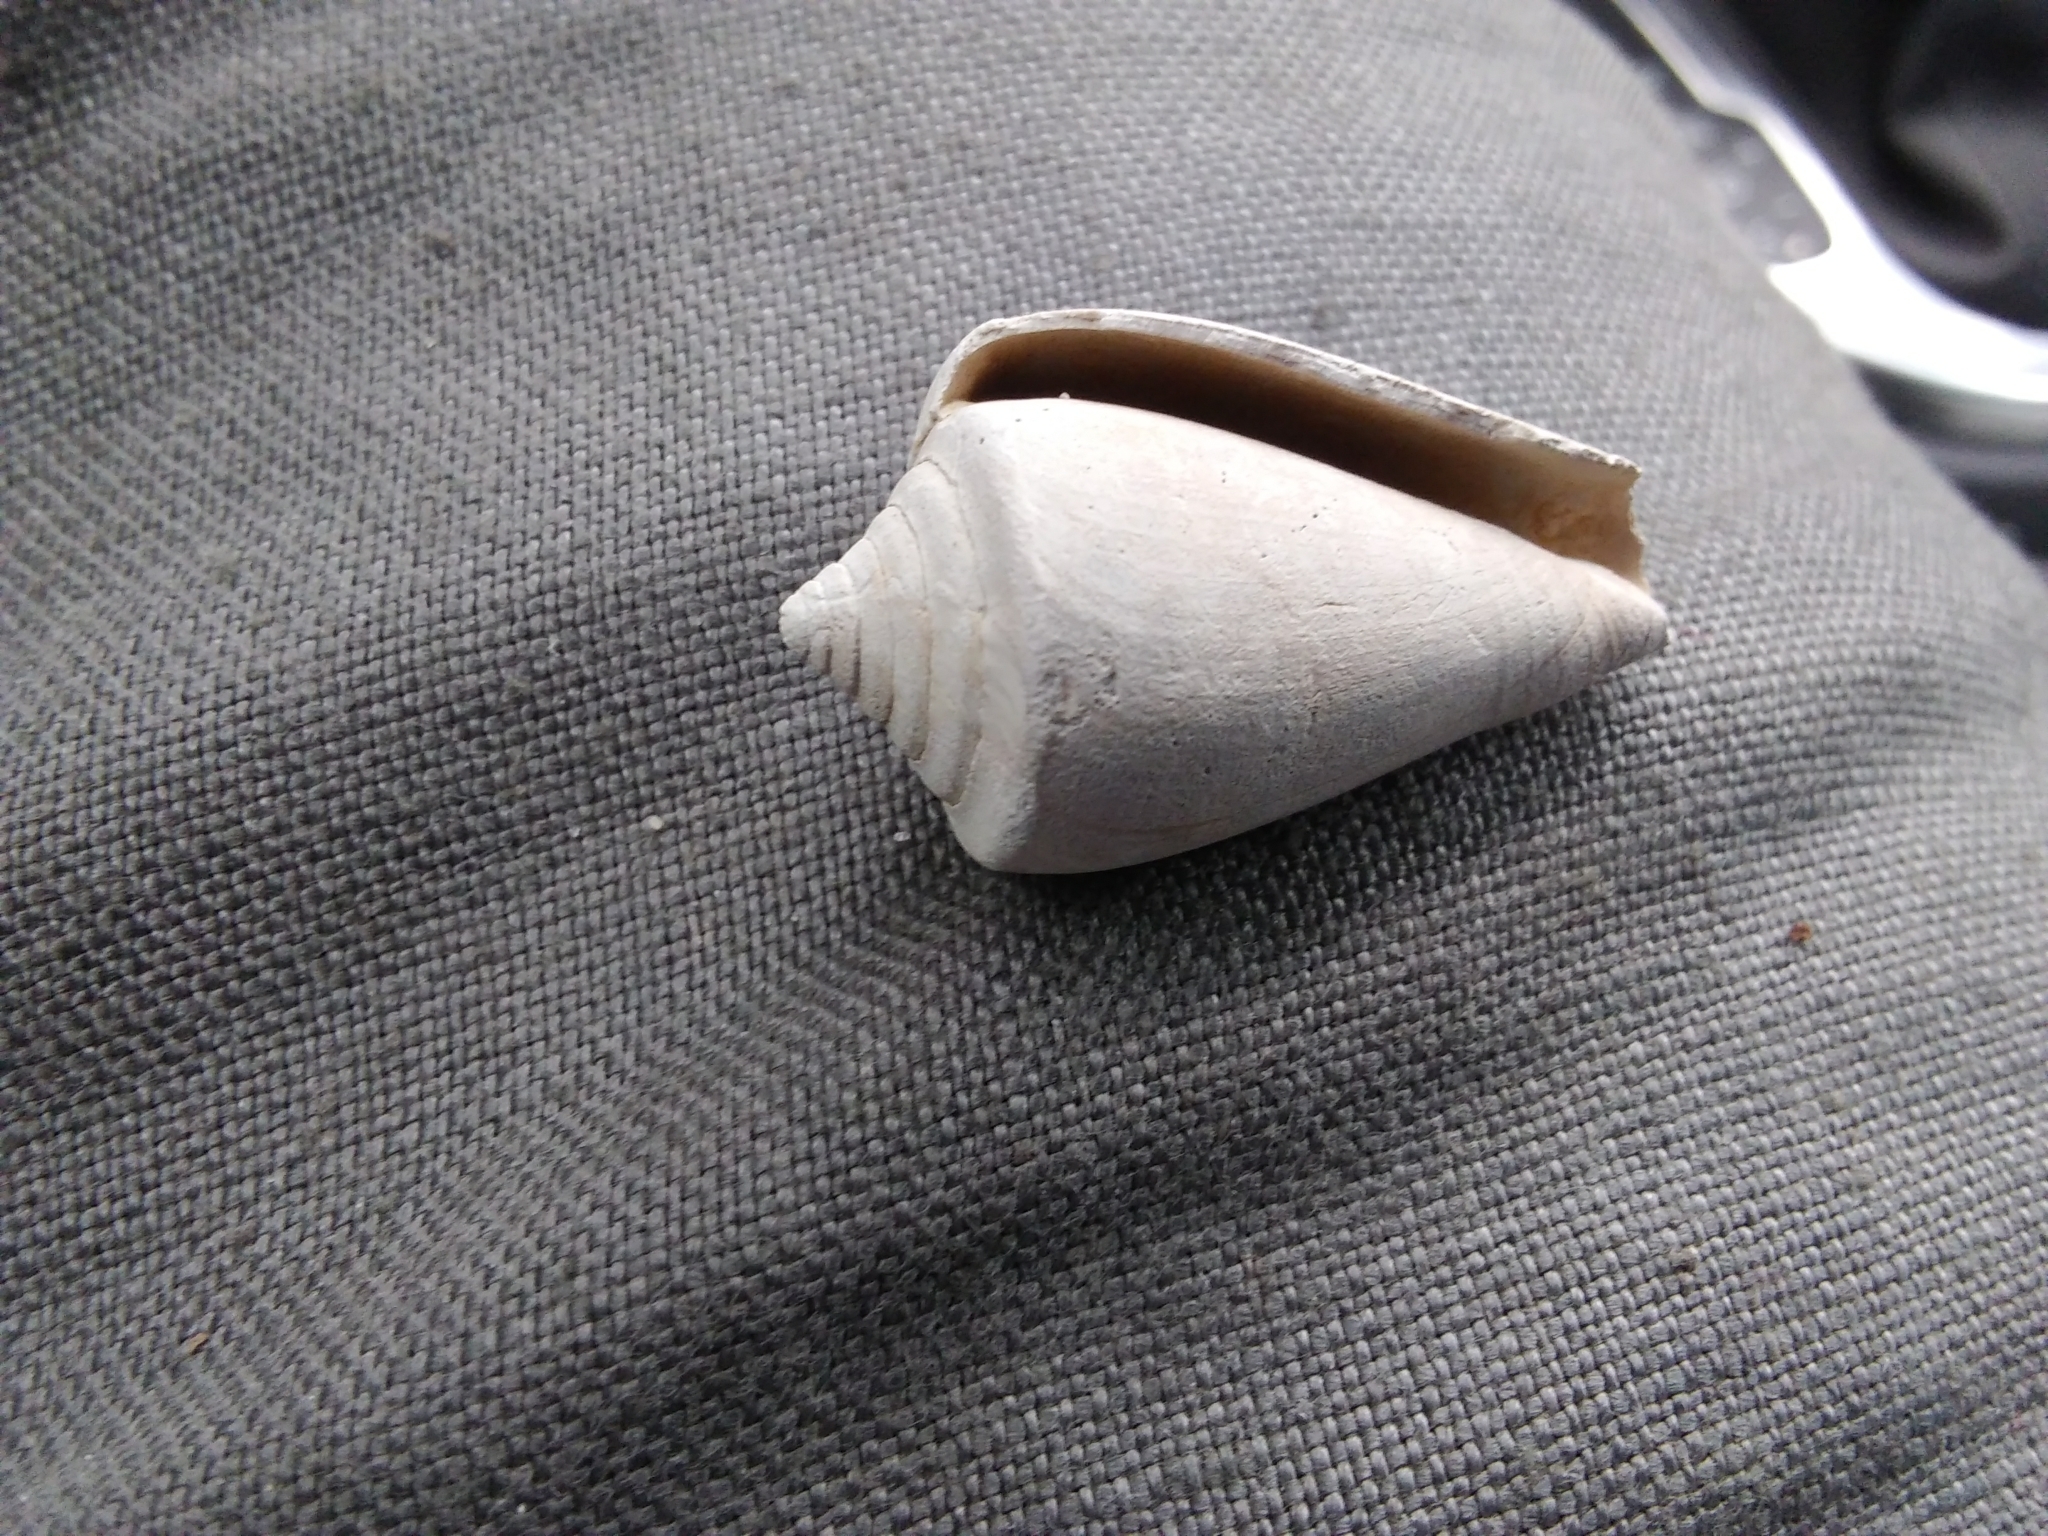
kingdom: Animalia
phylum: Mollusca
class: Gastropoda
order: Neogastropoda
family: Conidae
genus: Conus
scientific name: Conus
